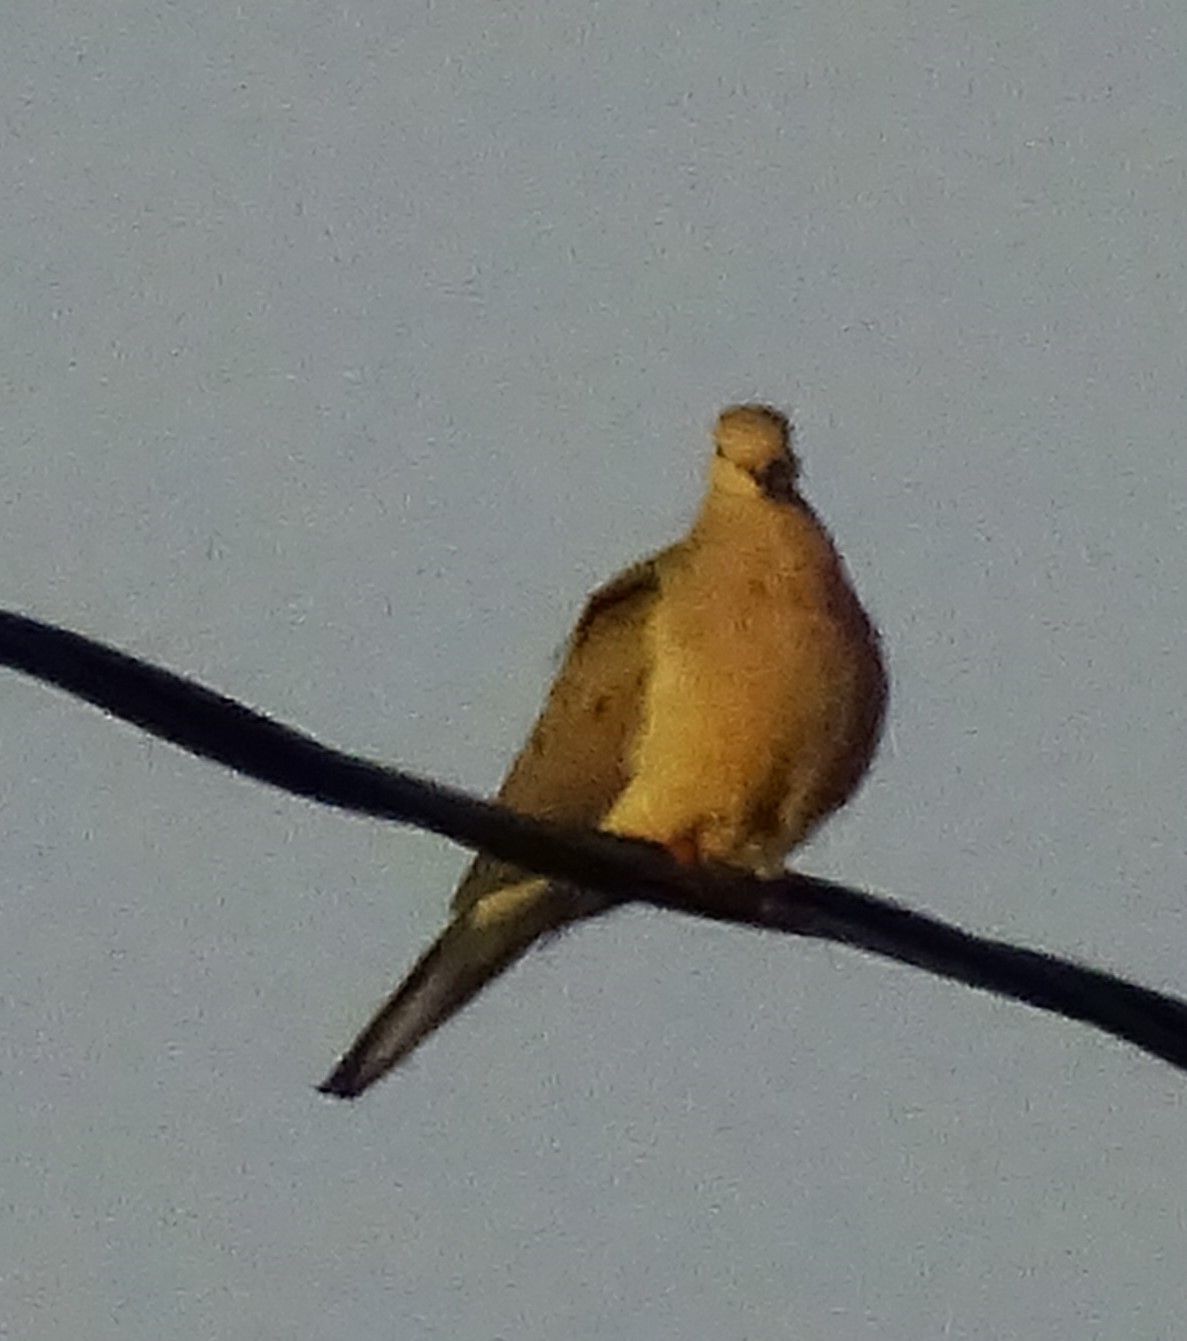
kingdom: Animalia
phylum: Chordata
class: Aves
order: Columbiformes
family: Columbidae
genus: Zenaida
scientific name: Zenaida macroura
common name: Mourning dove
